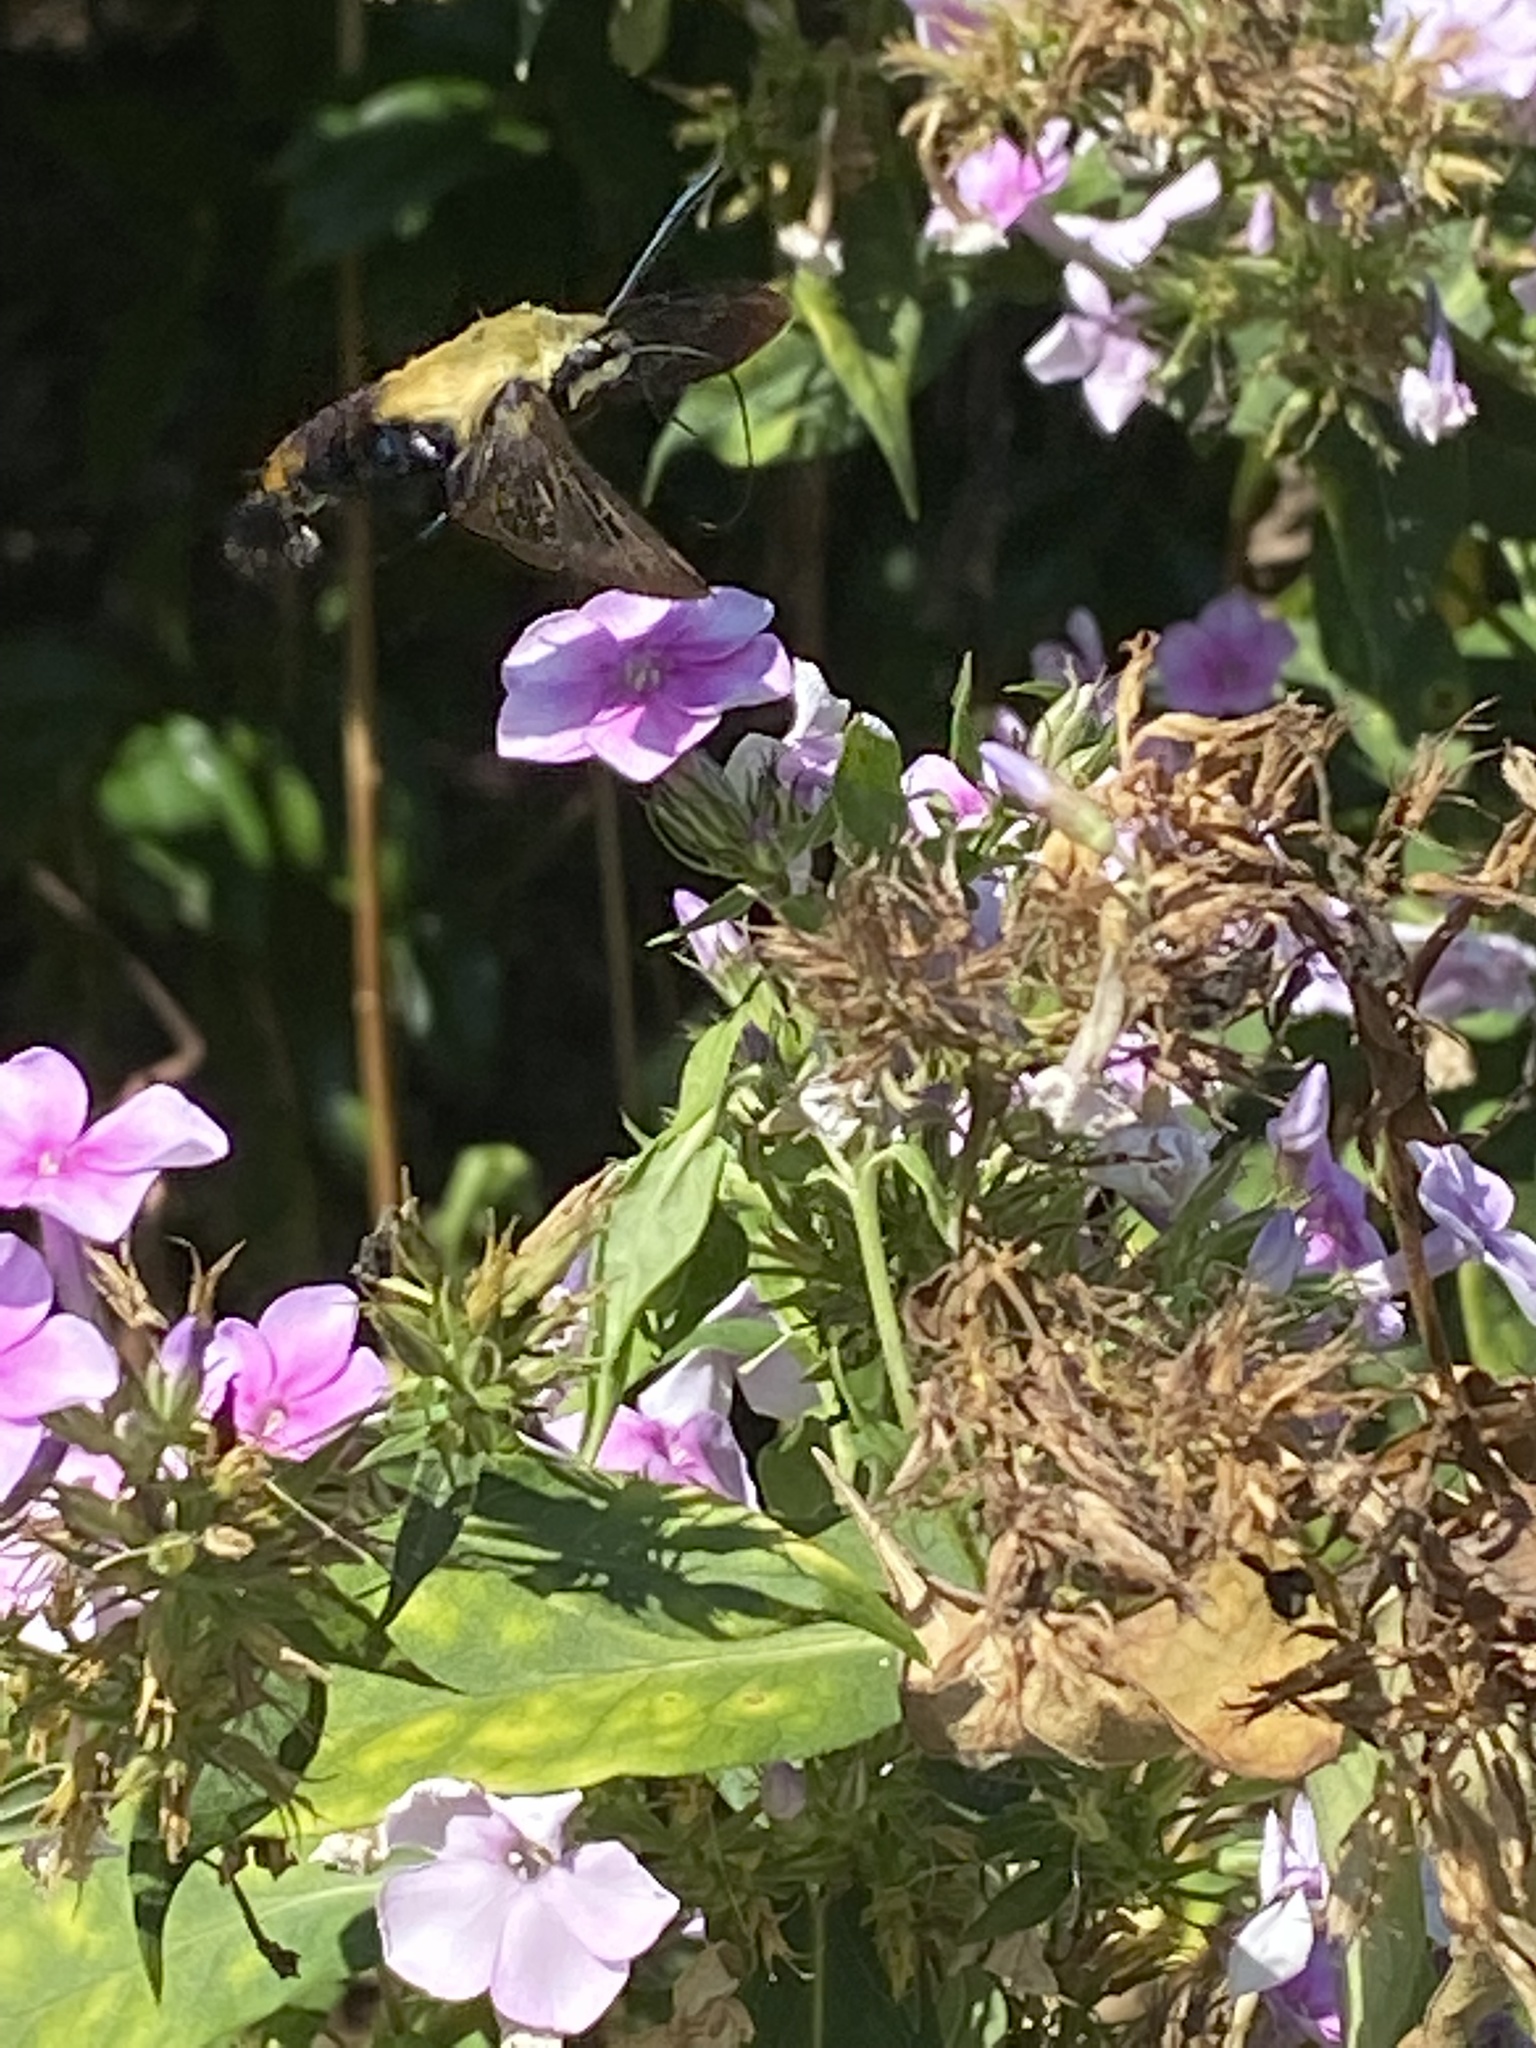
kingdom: Animalia
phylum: Arthropoda
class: Insecta
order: Lepidoptera
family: Sphingidae
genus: Hemaris
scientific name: Hemaris diffinis
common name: Bumblebee moth
